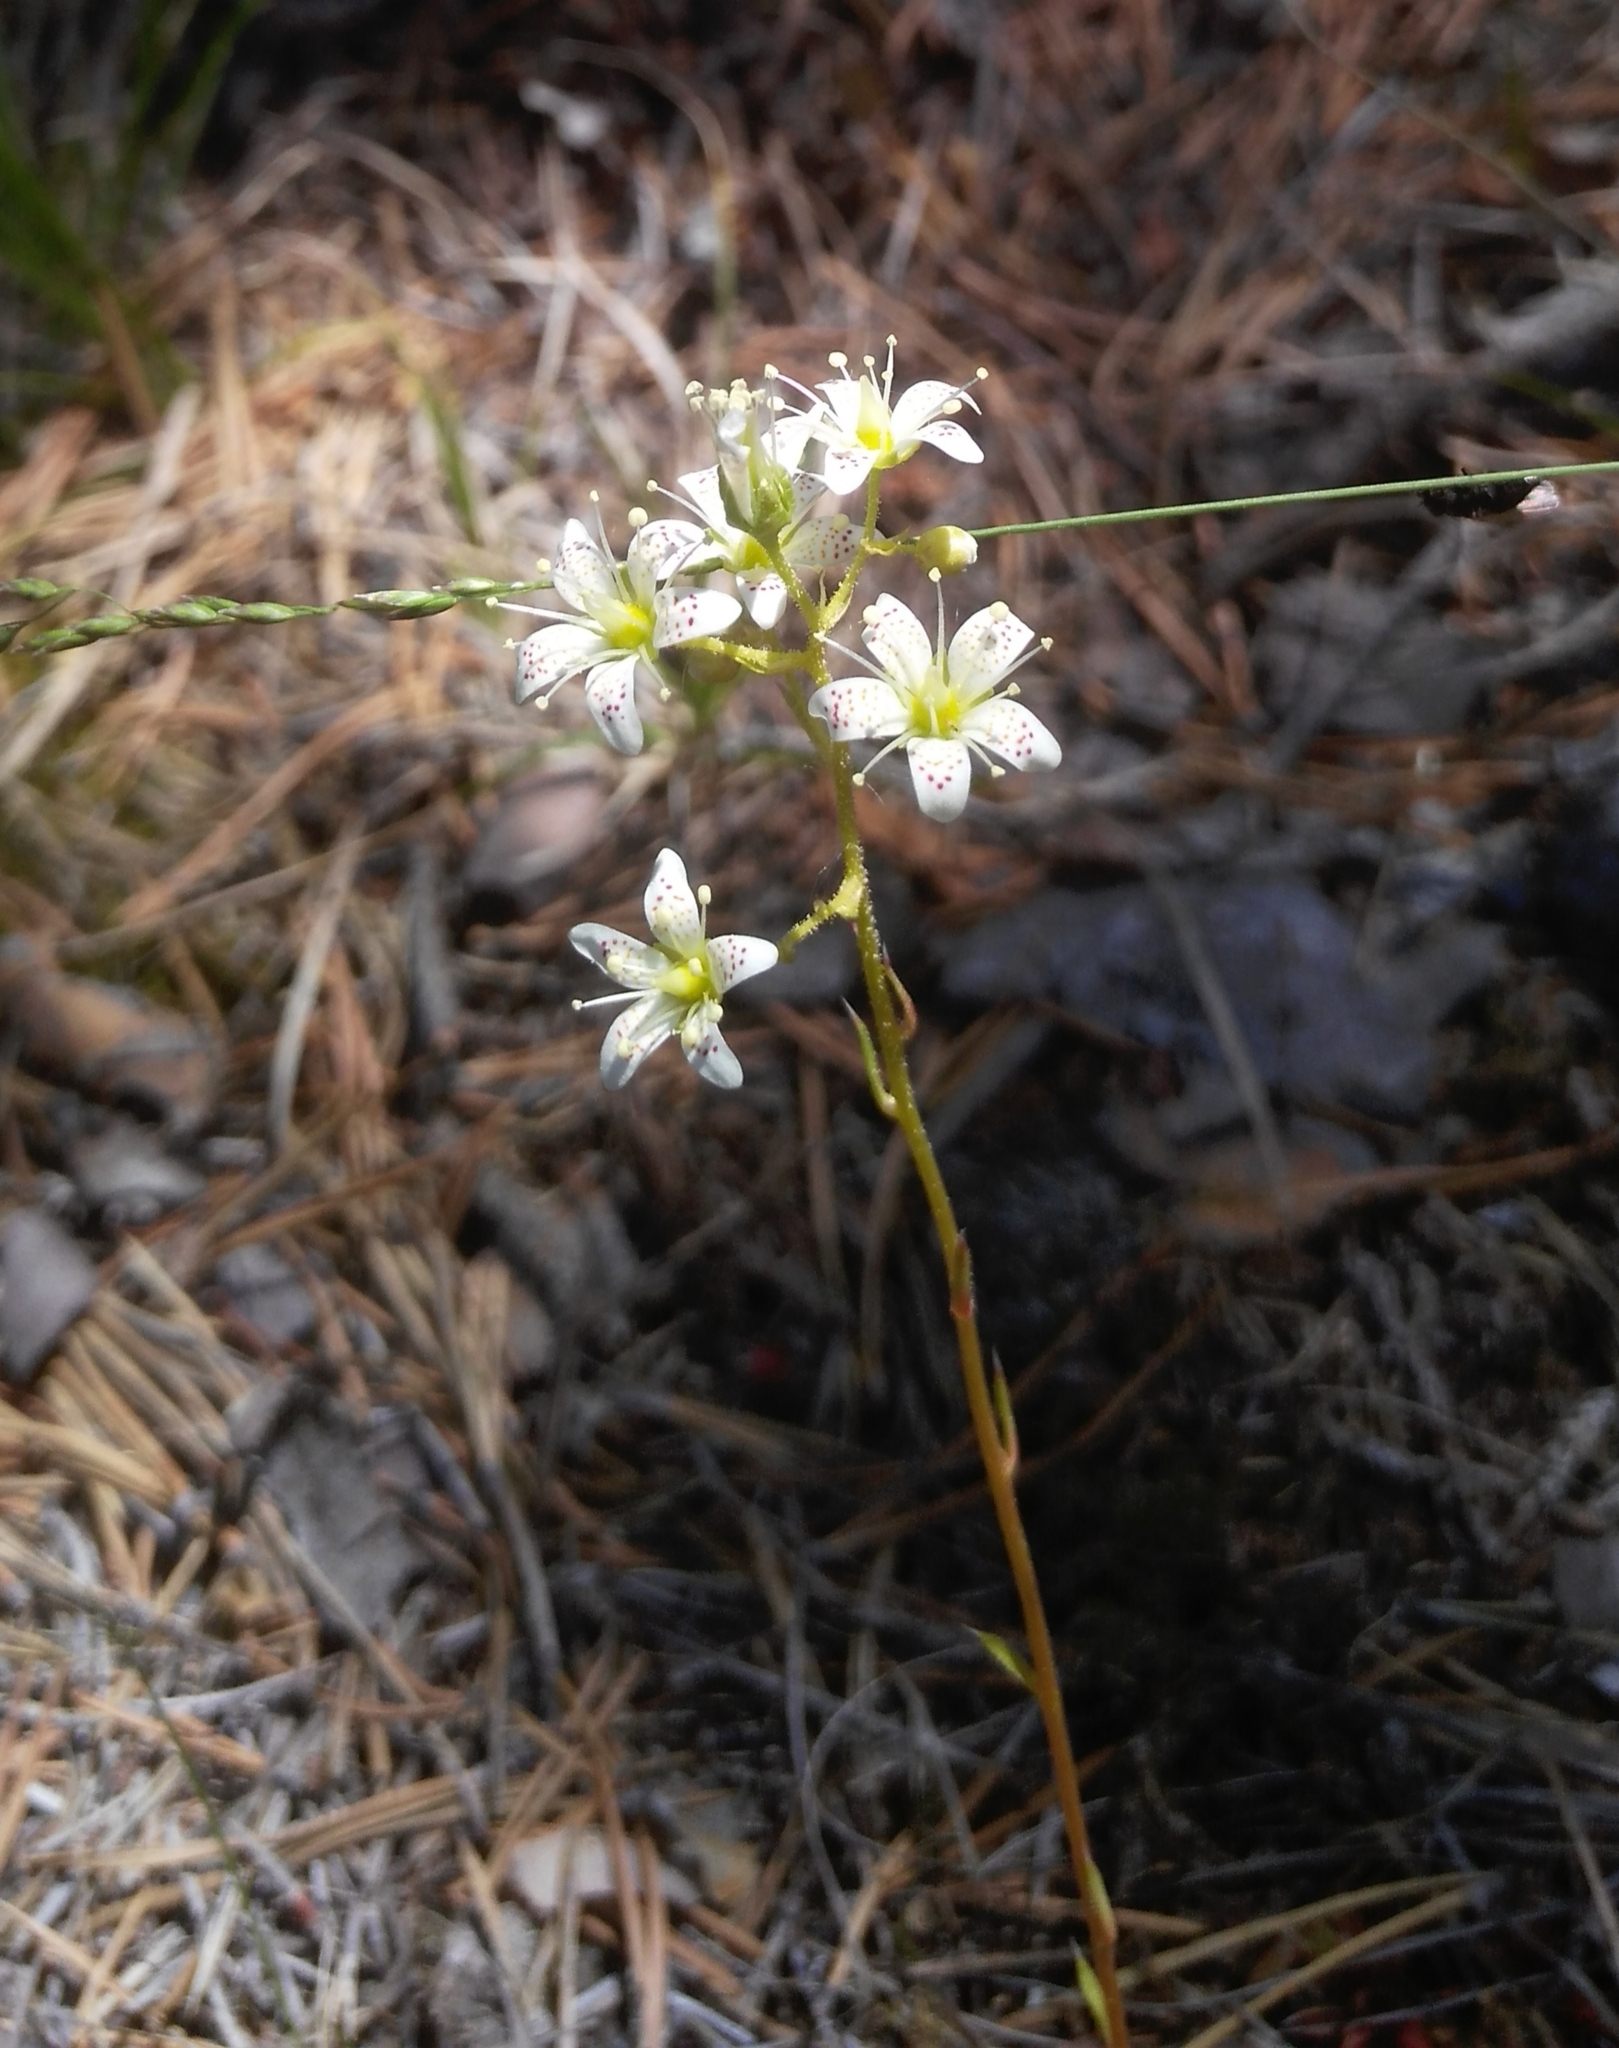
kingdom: Plantae
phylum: Tracheophyta
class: Magnoliopsida
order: Saxifragales
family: Saxifragaceae
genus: Saxifraga
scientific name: Saxifraga bronchialis
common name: Matted saxifrage
